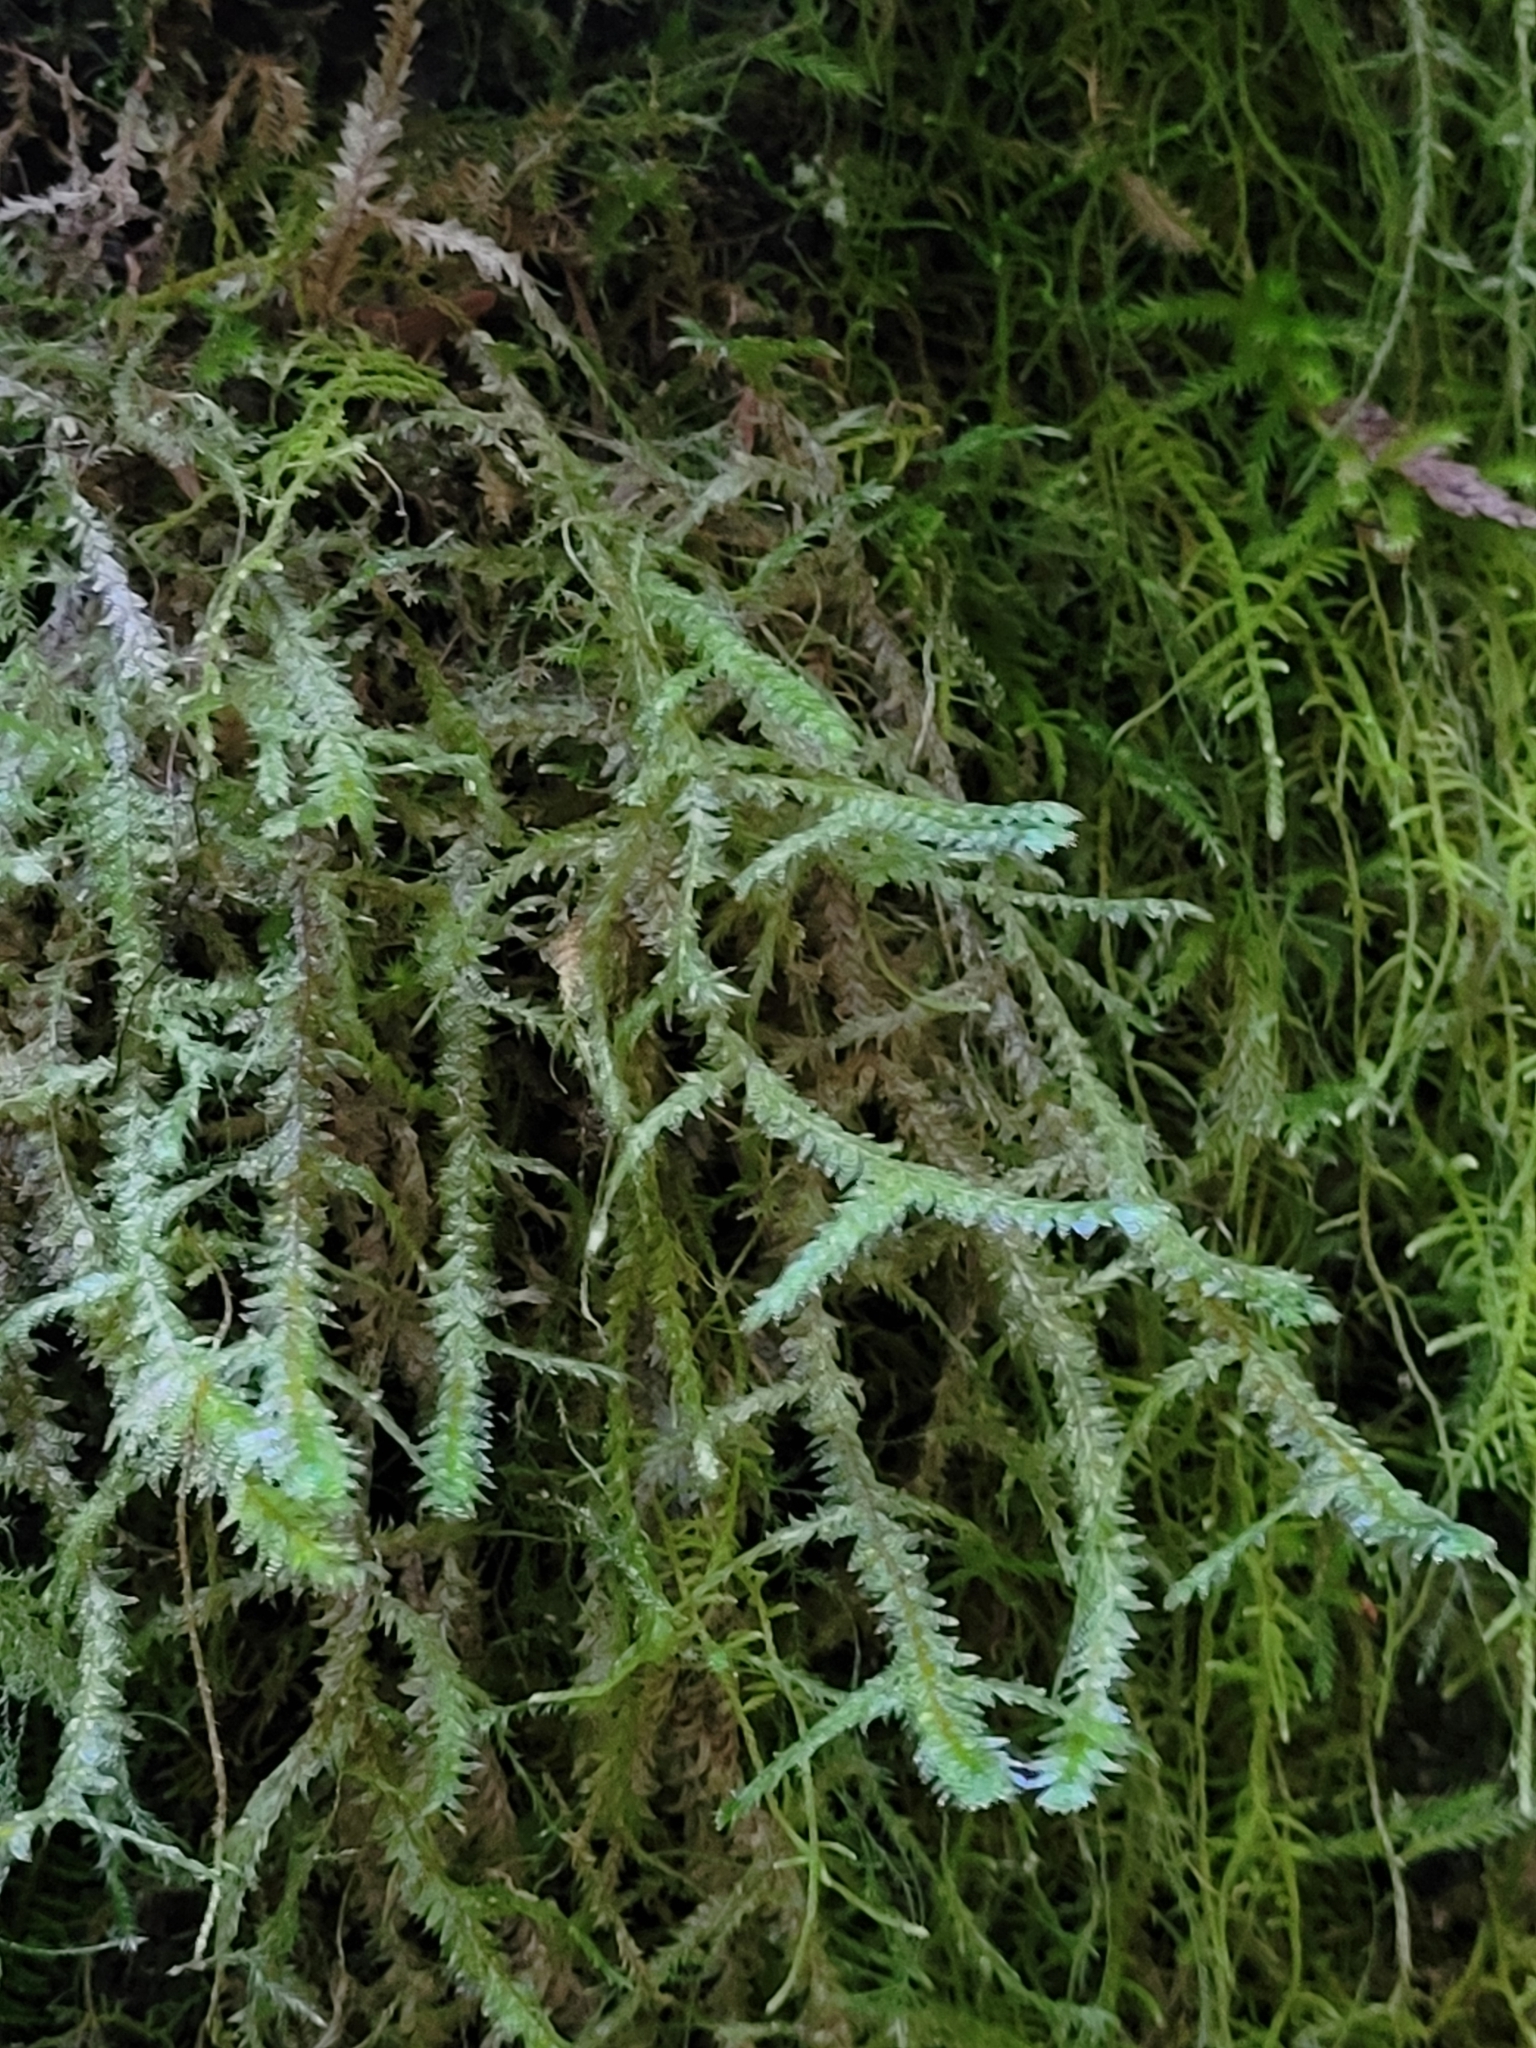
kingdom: Plantae
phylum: Bryophyta
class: Bryopsida
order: Hypnales
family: Neckeraceae
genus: Neckera
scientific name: Neckera douglasii
